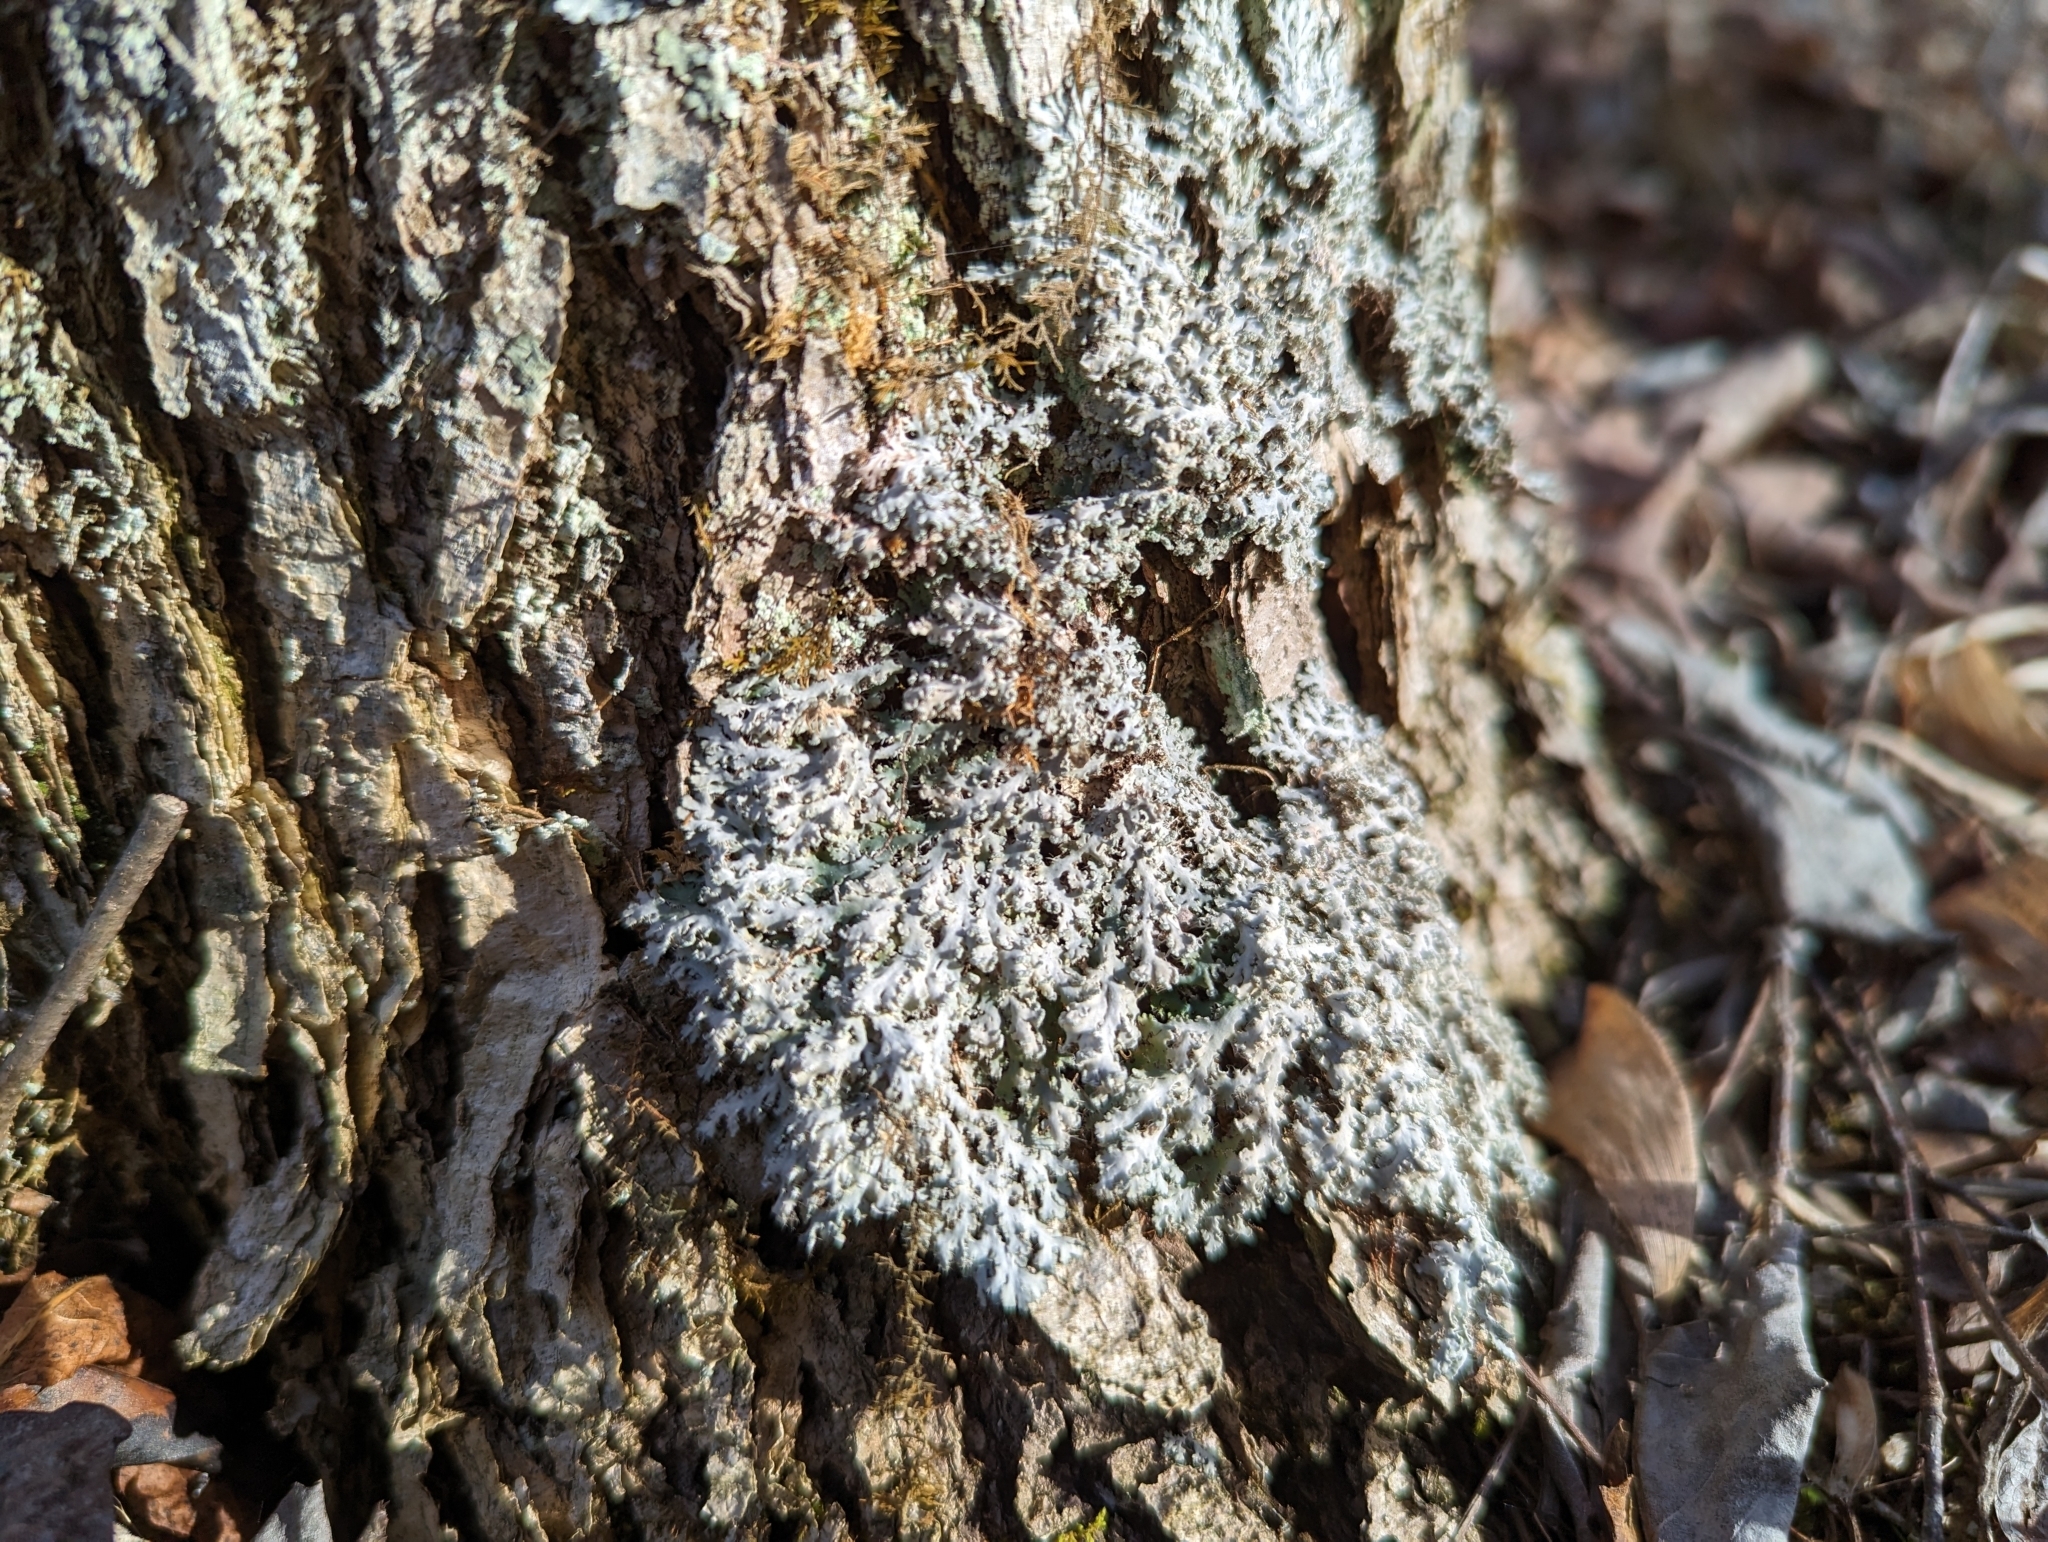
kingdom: Fungi
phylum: Ascomycota
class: Lecanoromycetes
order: Caliciales
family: Physciaceae
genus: Heterodermia
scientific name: Heterodermia speciosa
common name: Powdered fringe lichen
